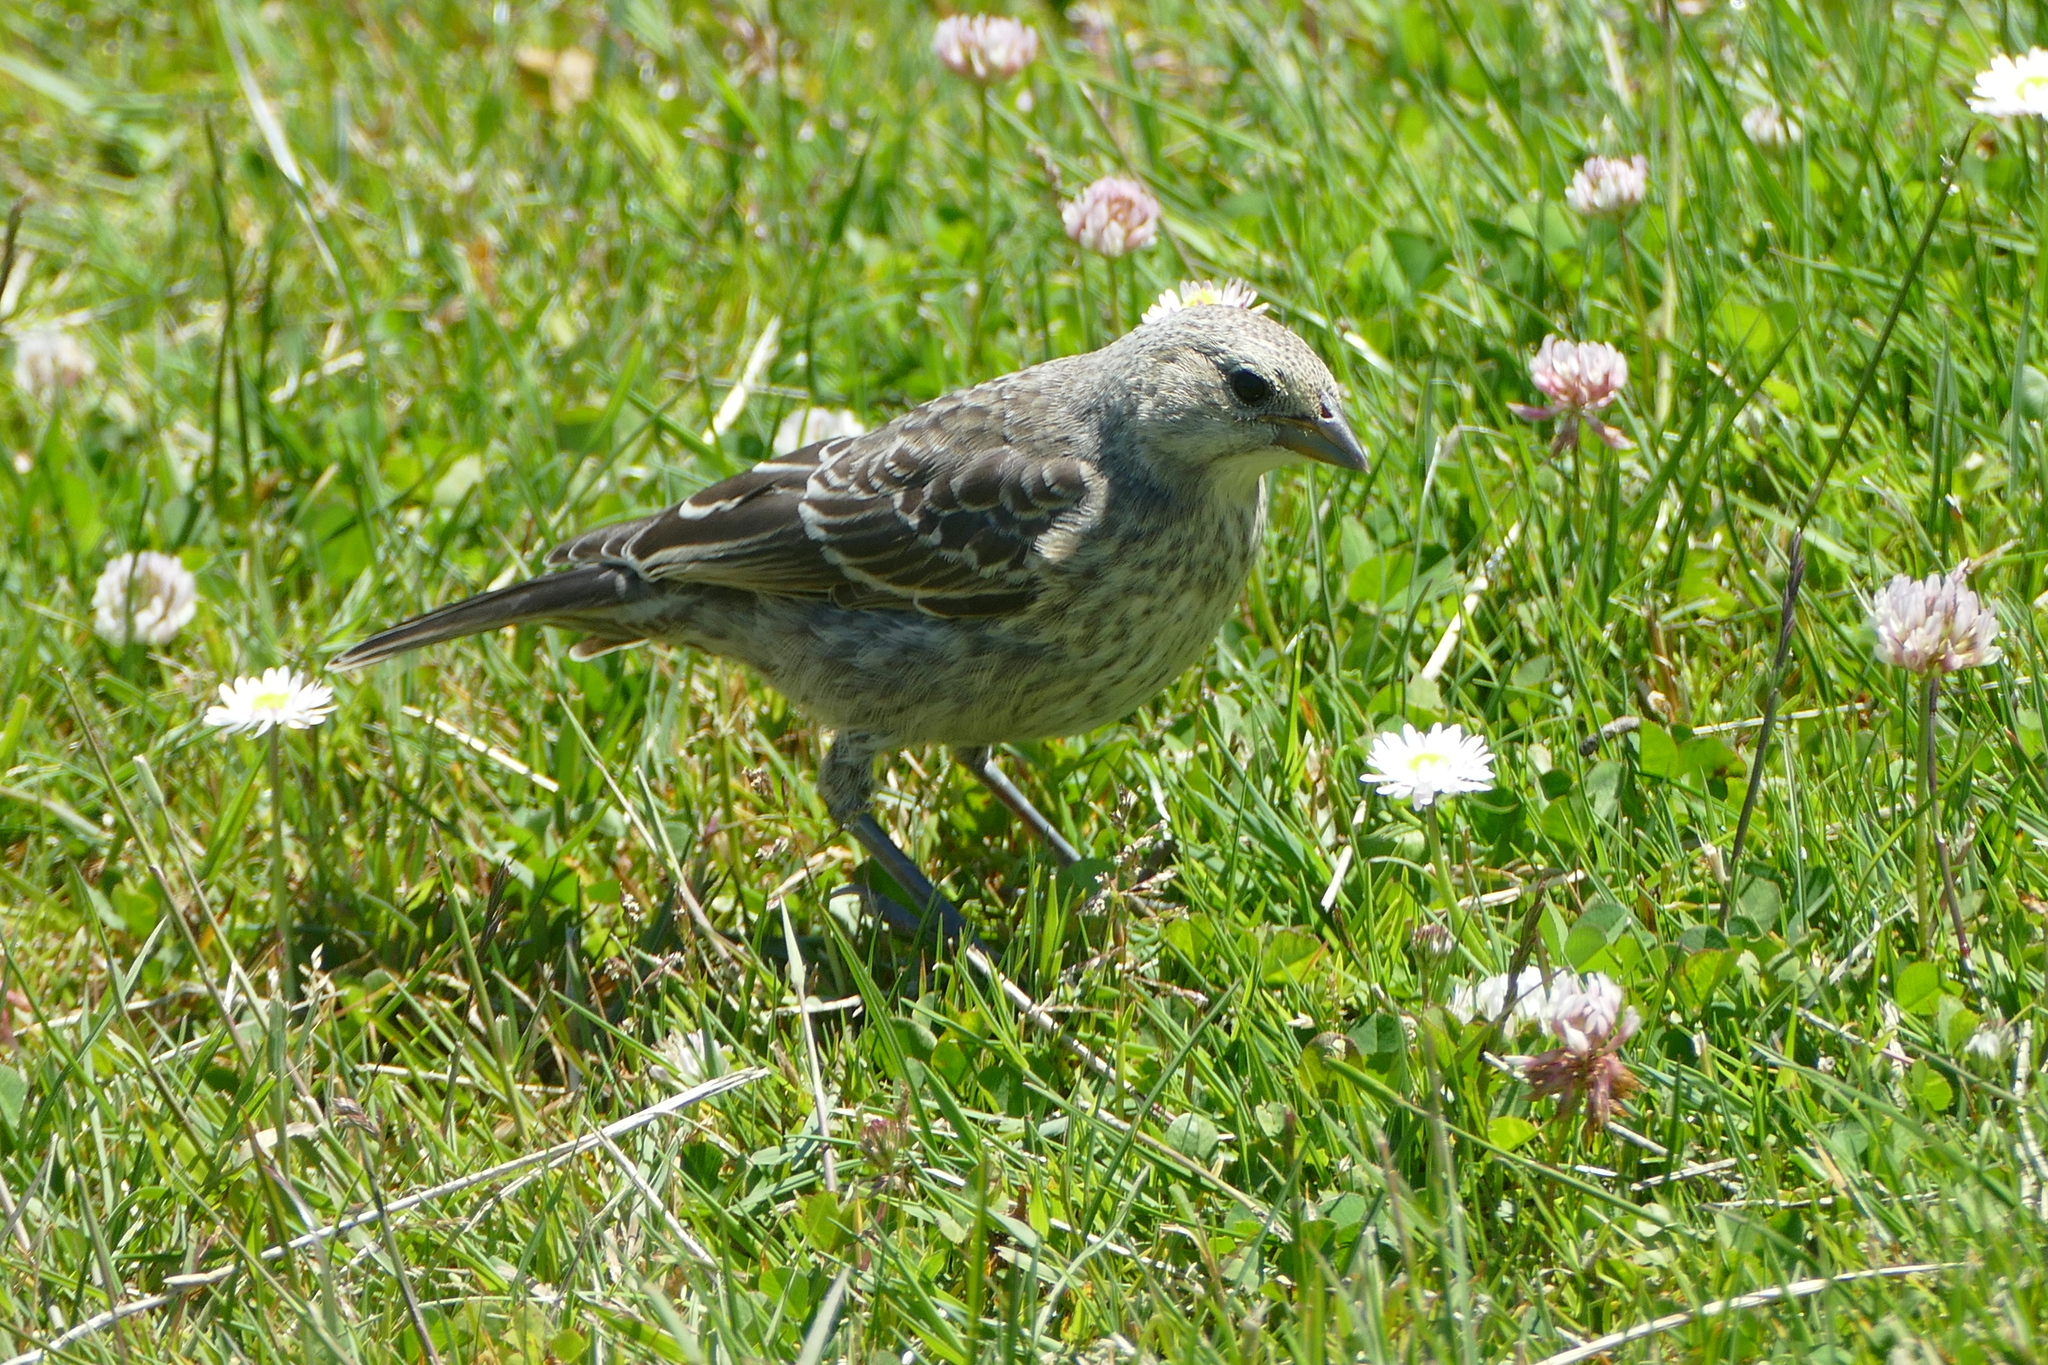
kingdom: Animalia
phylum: Chordata
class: Aves
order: Passeriformes
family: Icteridae
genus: Molothrus
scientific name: Molothrus ater
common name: Brown-headed cowbird
